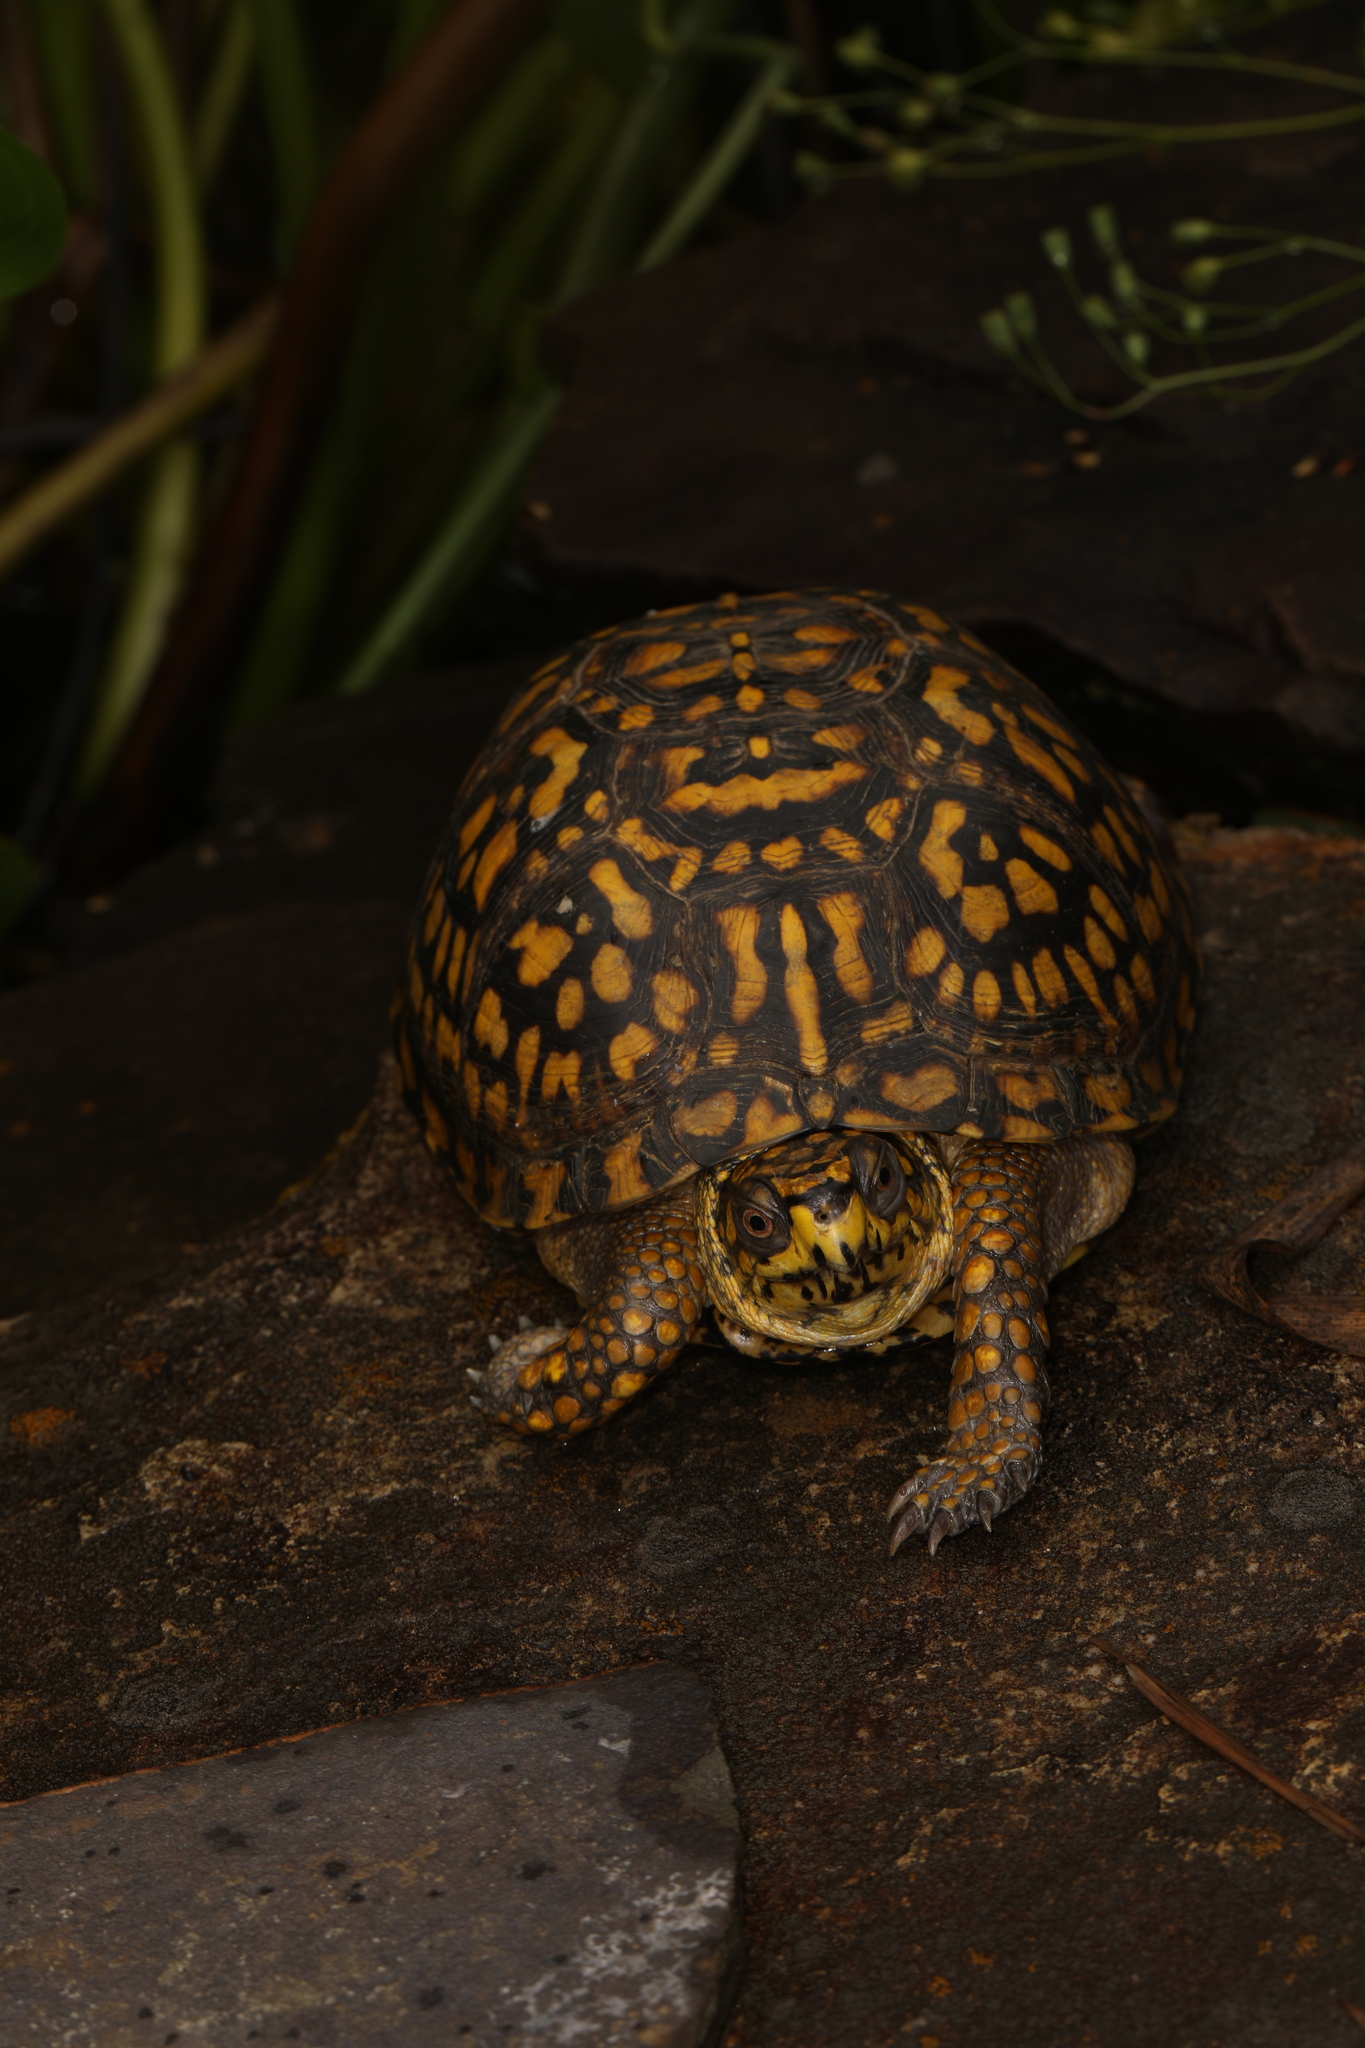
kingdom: Animalia
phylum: Chordata
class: Testudines
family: Emydidae
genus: Terrapene
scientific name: Terrapene carolina
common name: Common box turtle
